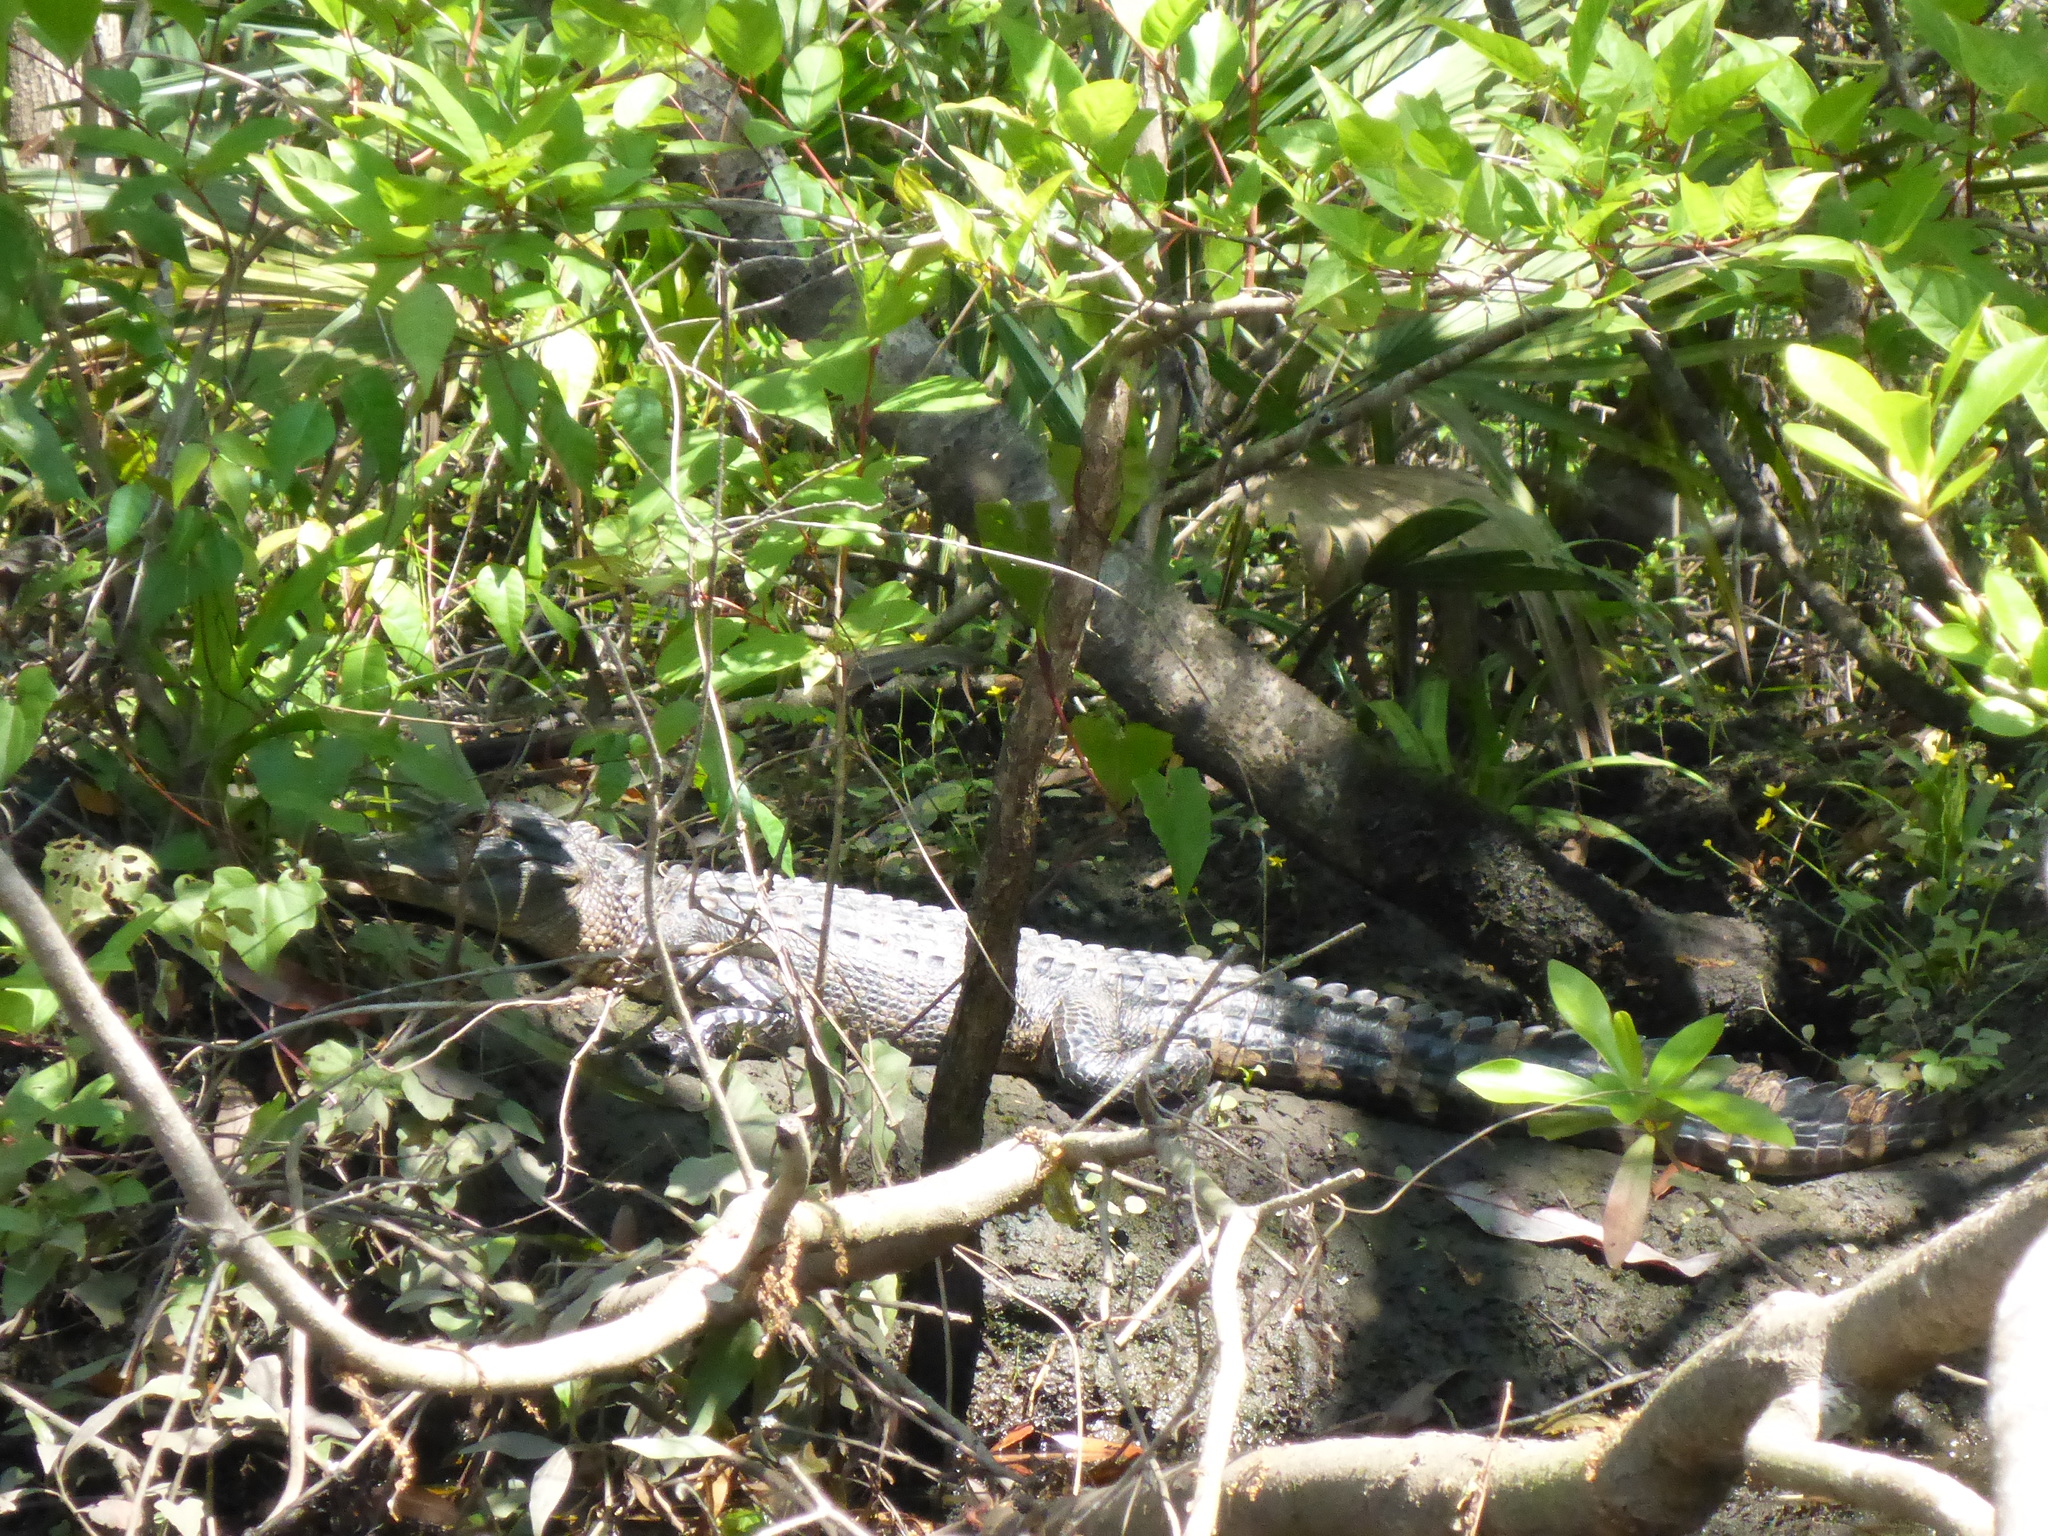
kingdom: Animalia
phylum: Chordata
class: Crocodylia
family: Alligatoridae
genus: Alligator
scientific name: Alligator mississippiensis
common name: American alligator
